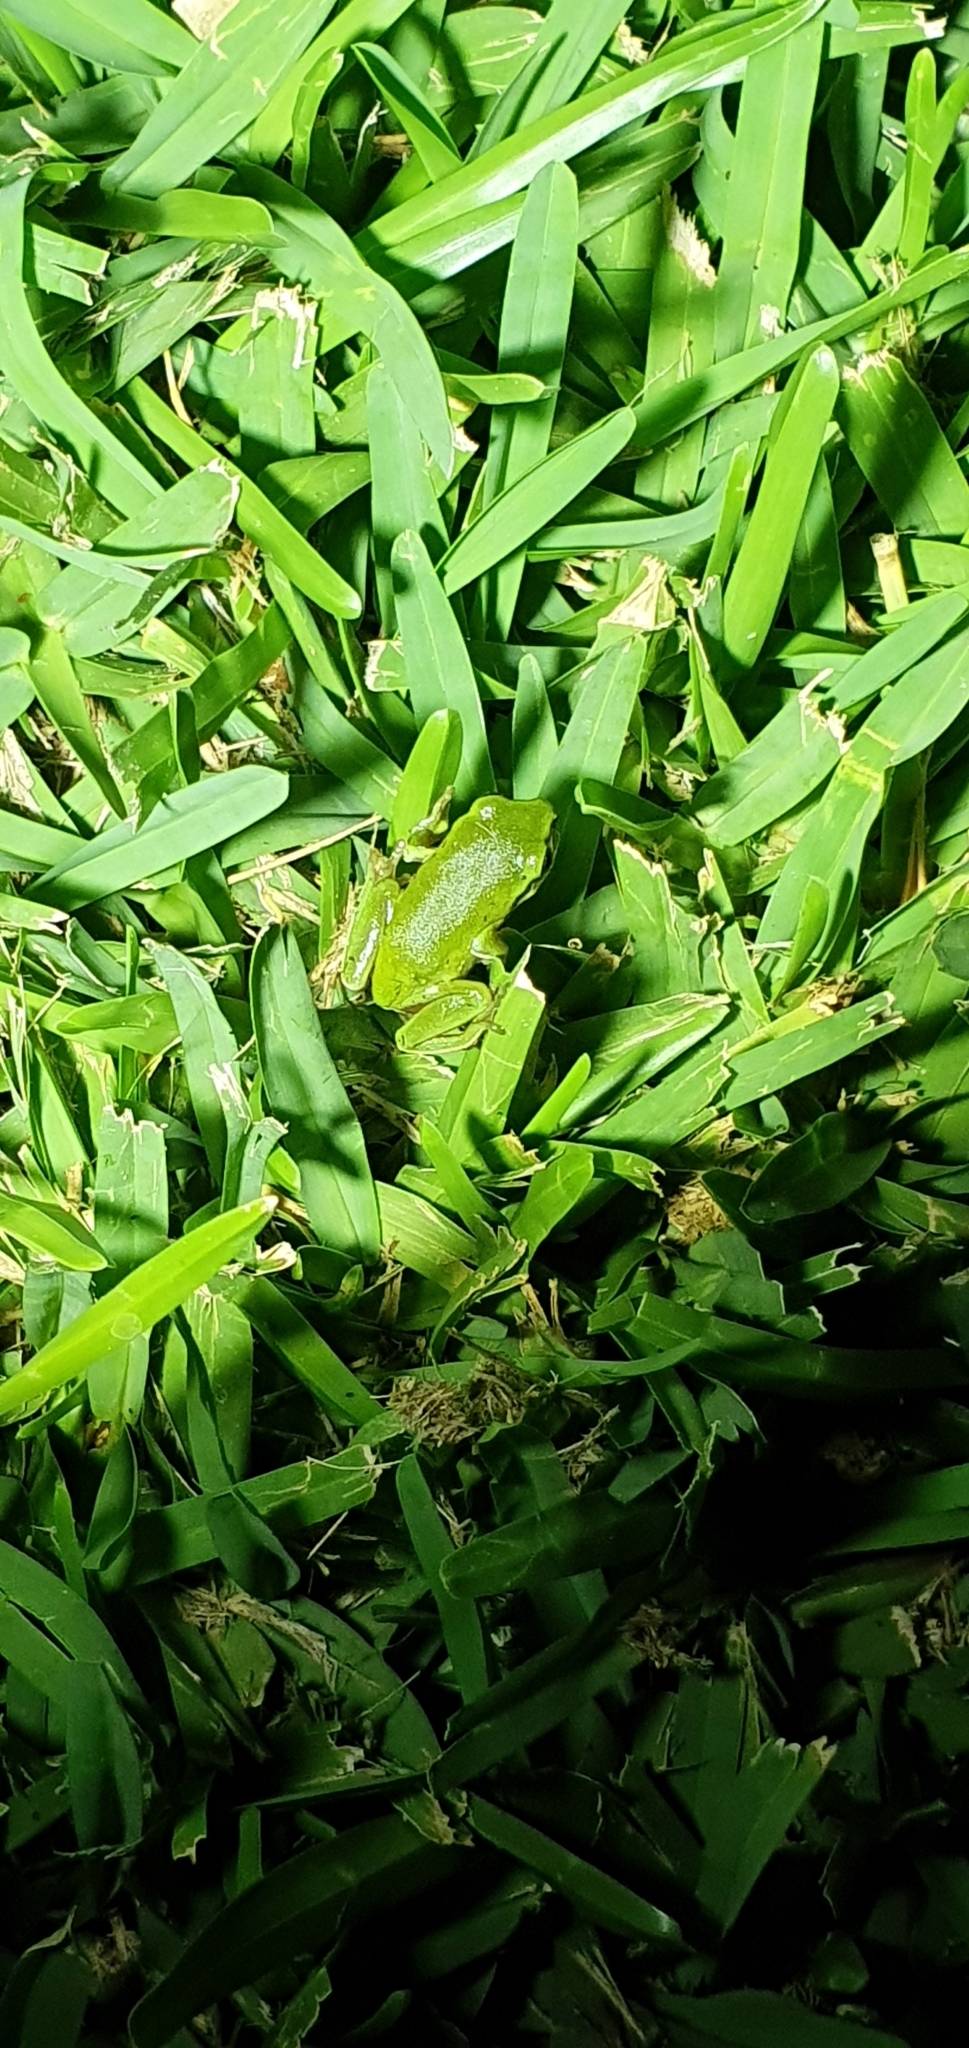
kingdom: Animalia
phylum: Chordata
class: Amphibia
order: Anura
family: Pelodryadidae
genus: Ranoidea
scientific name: Ranoidea caerulea
